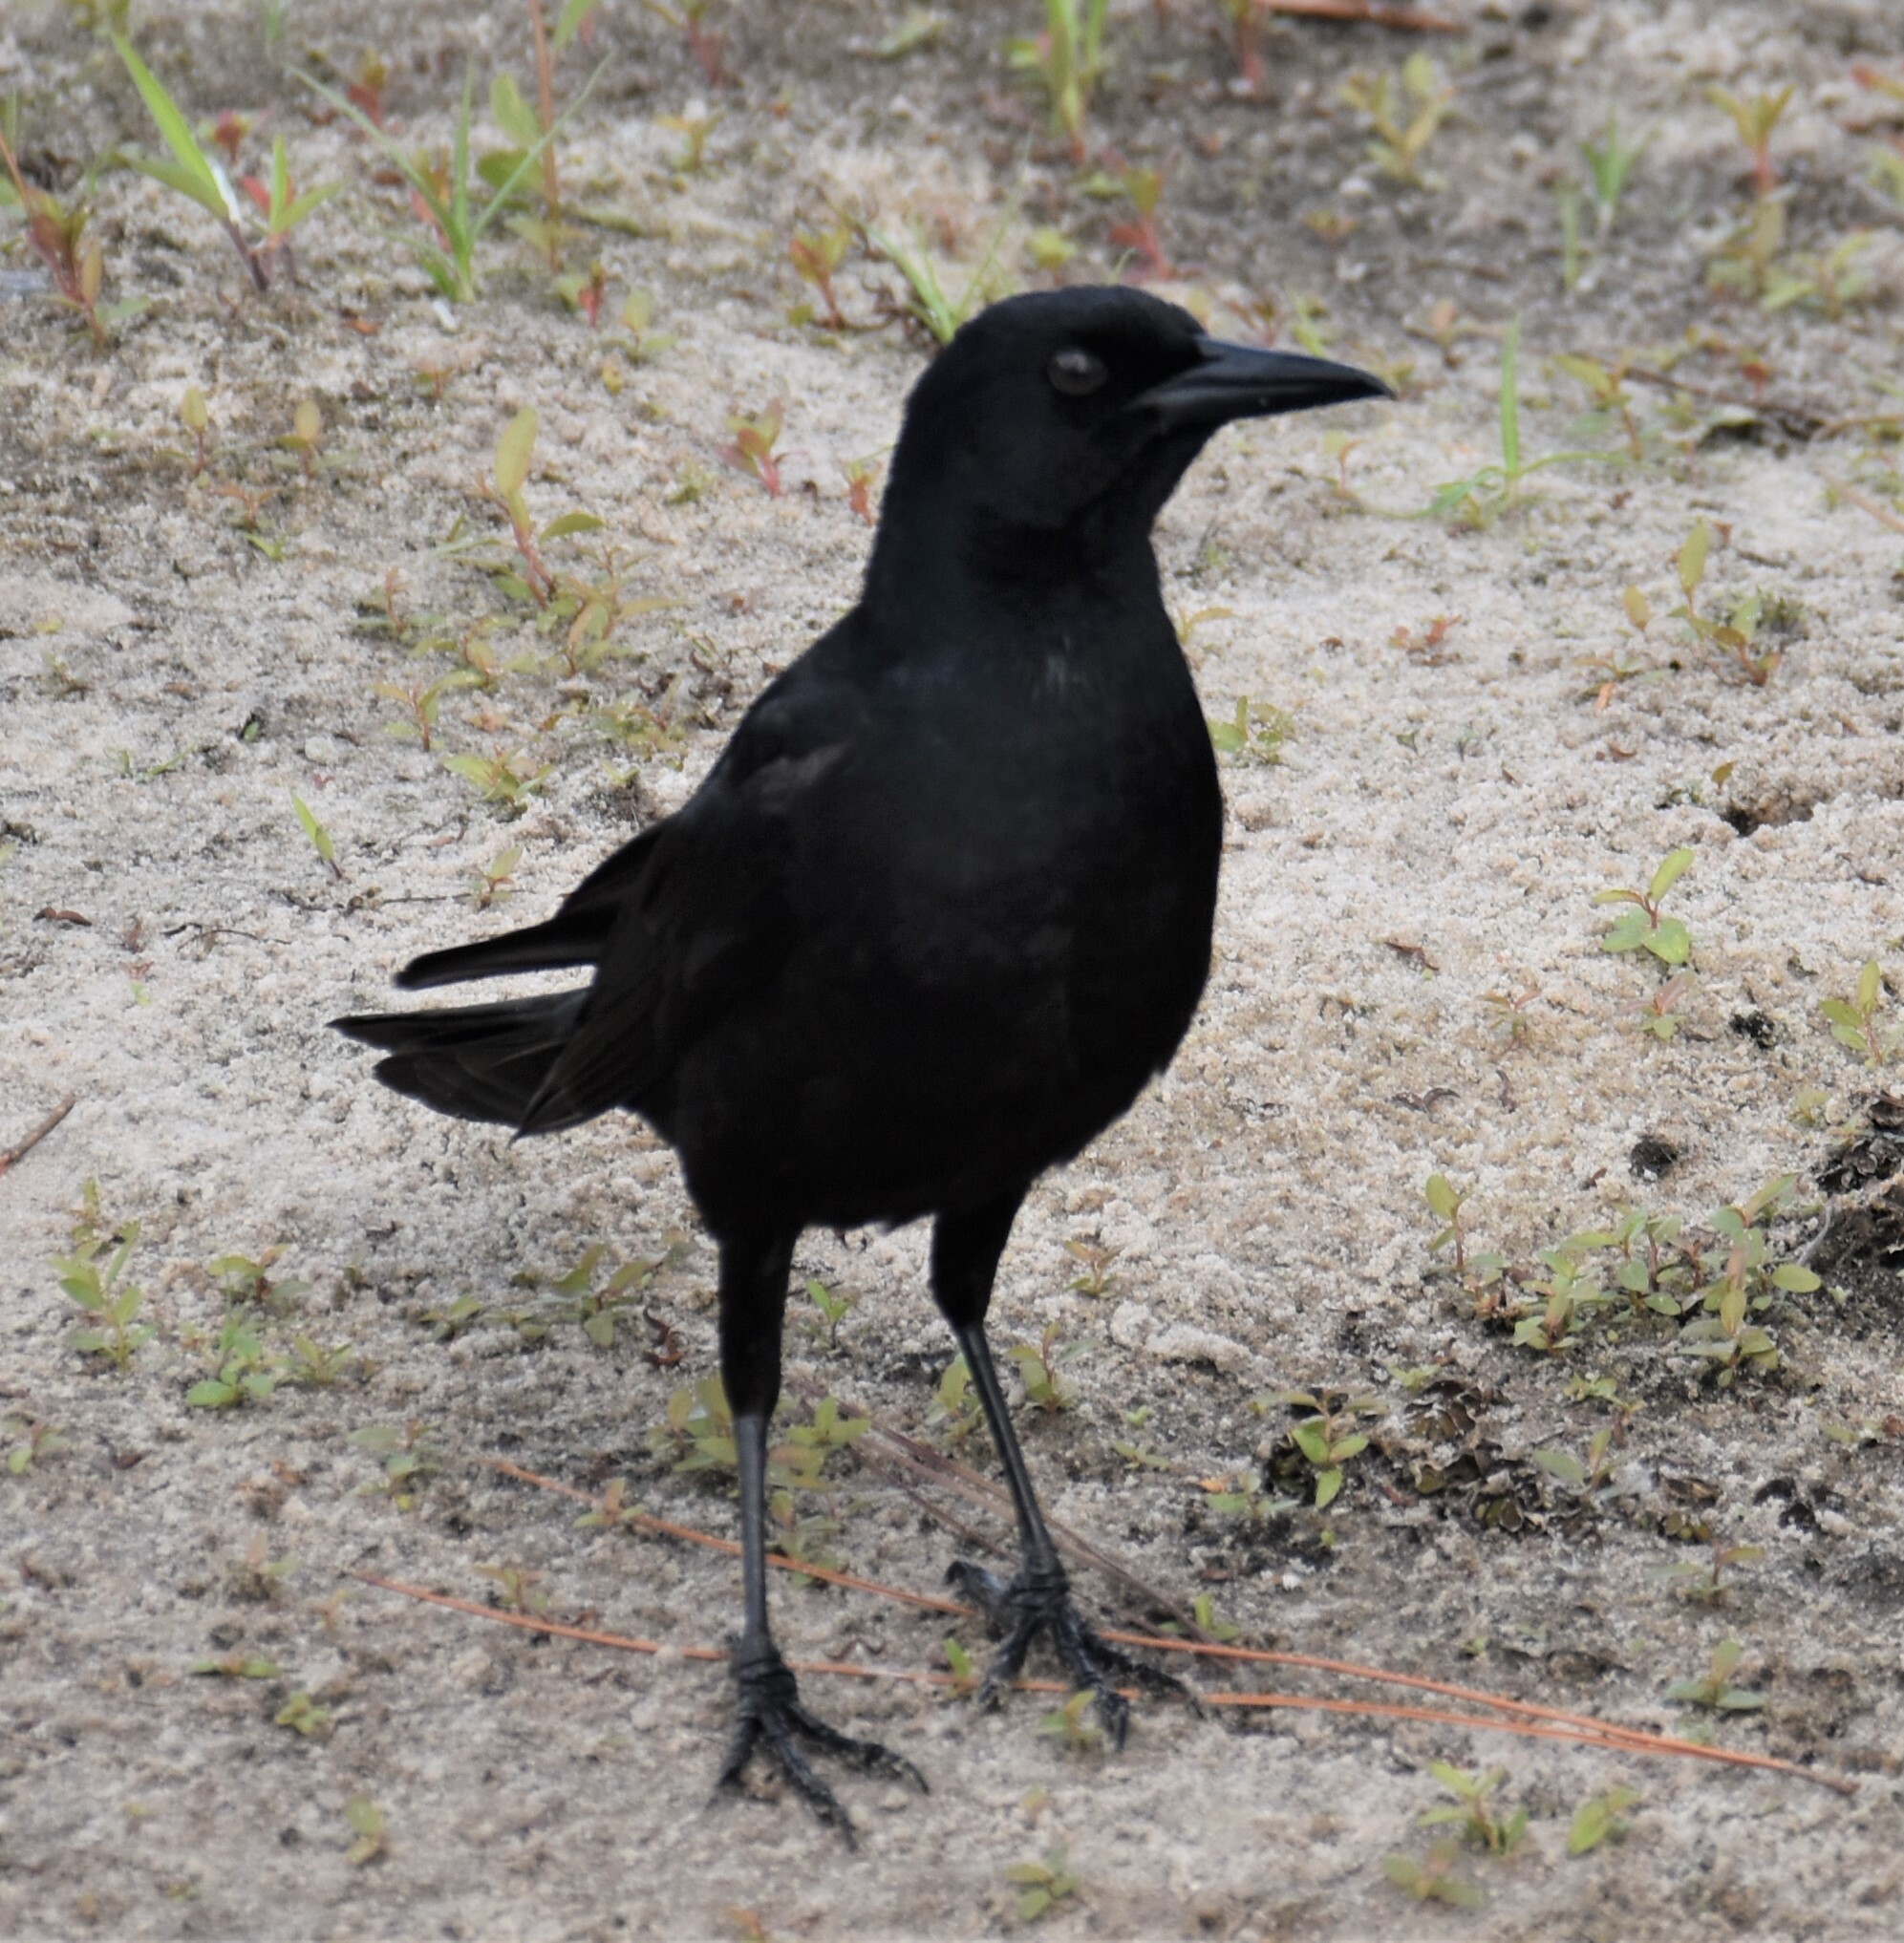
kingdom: Animalia
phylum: Chordata
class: Aves
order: Passeriformes
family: Icteridae
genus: Quiscalus
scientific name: Quiscalus major
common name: Boat-tailed grackle
